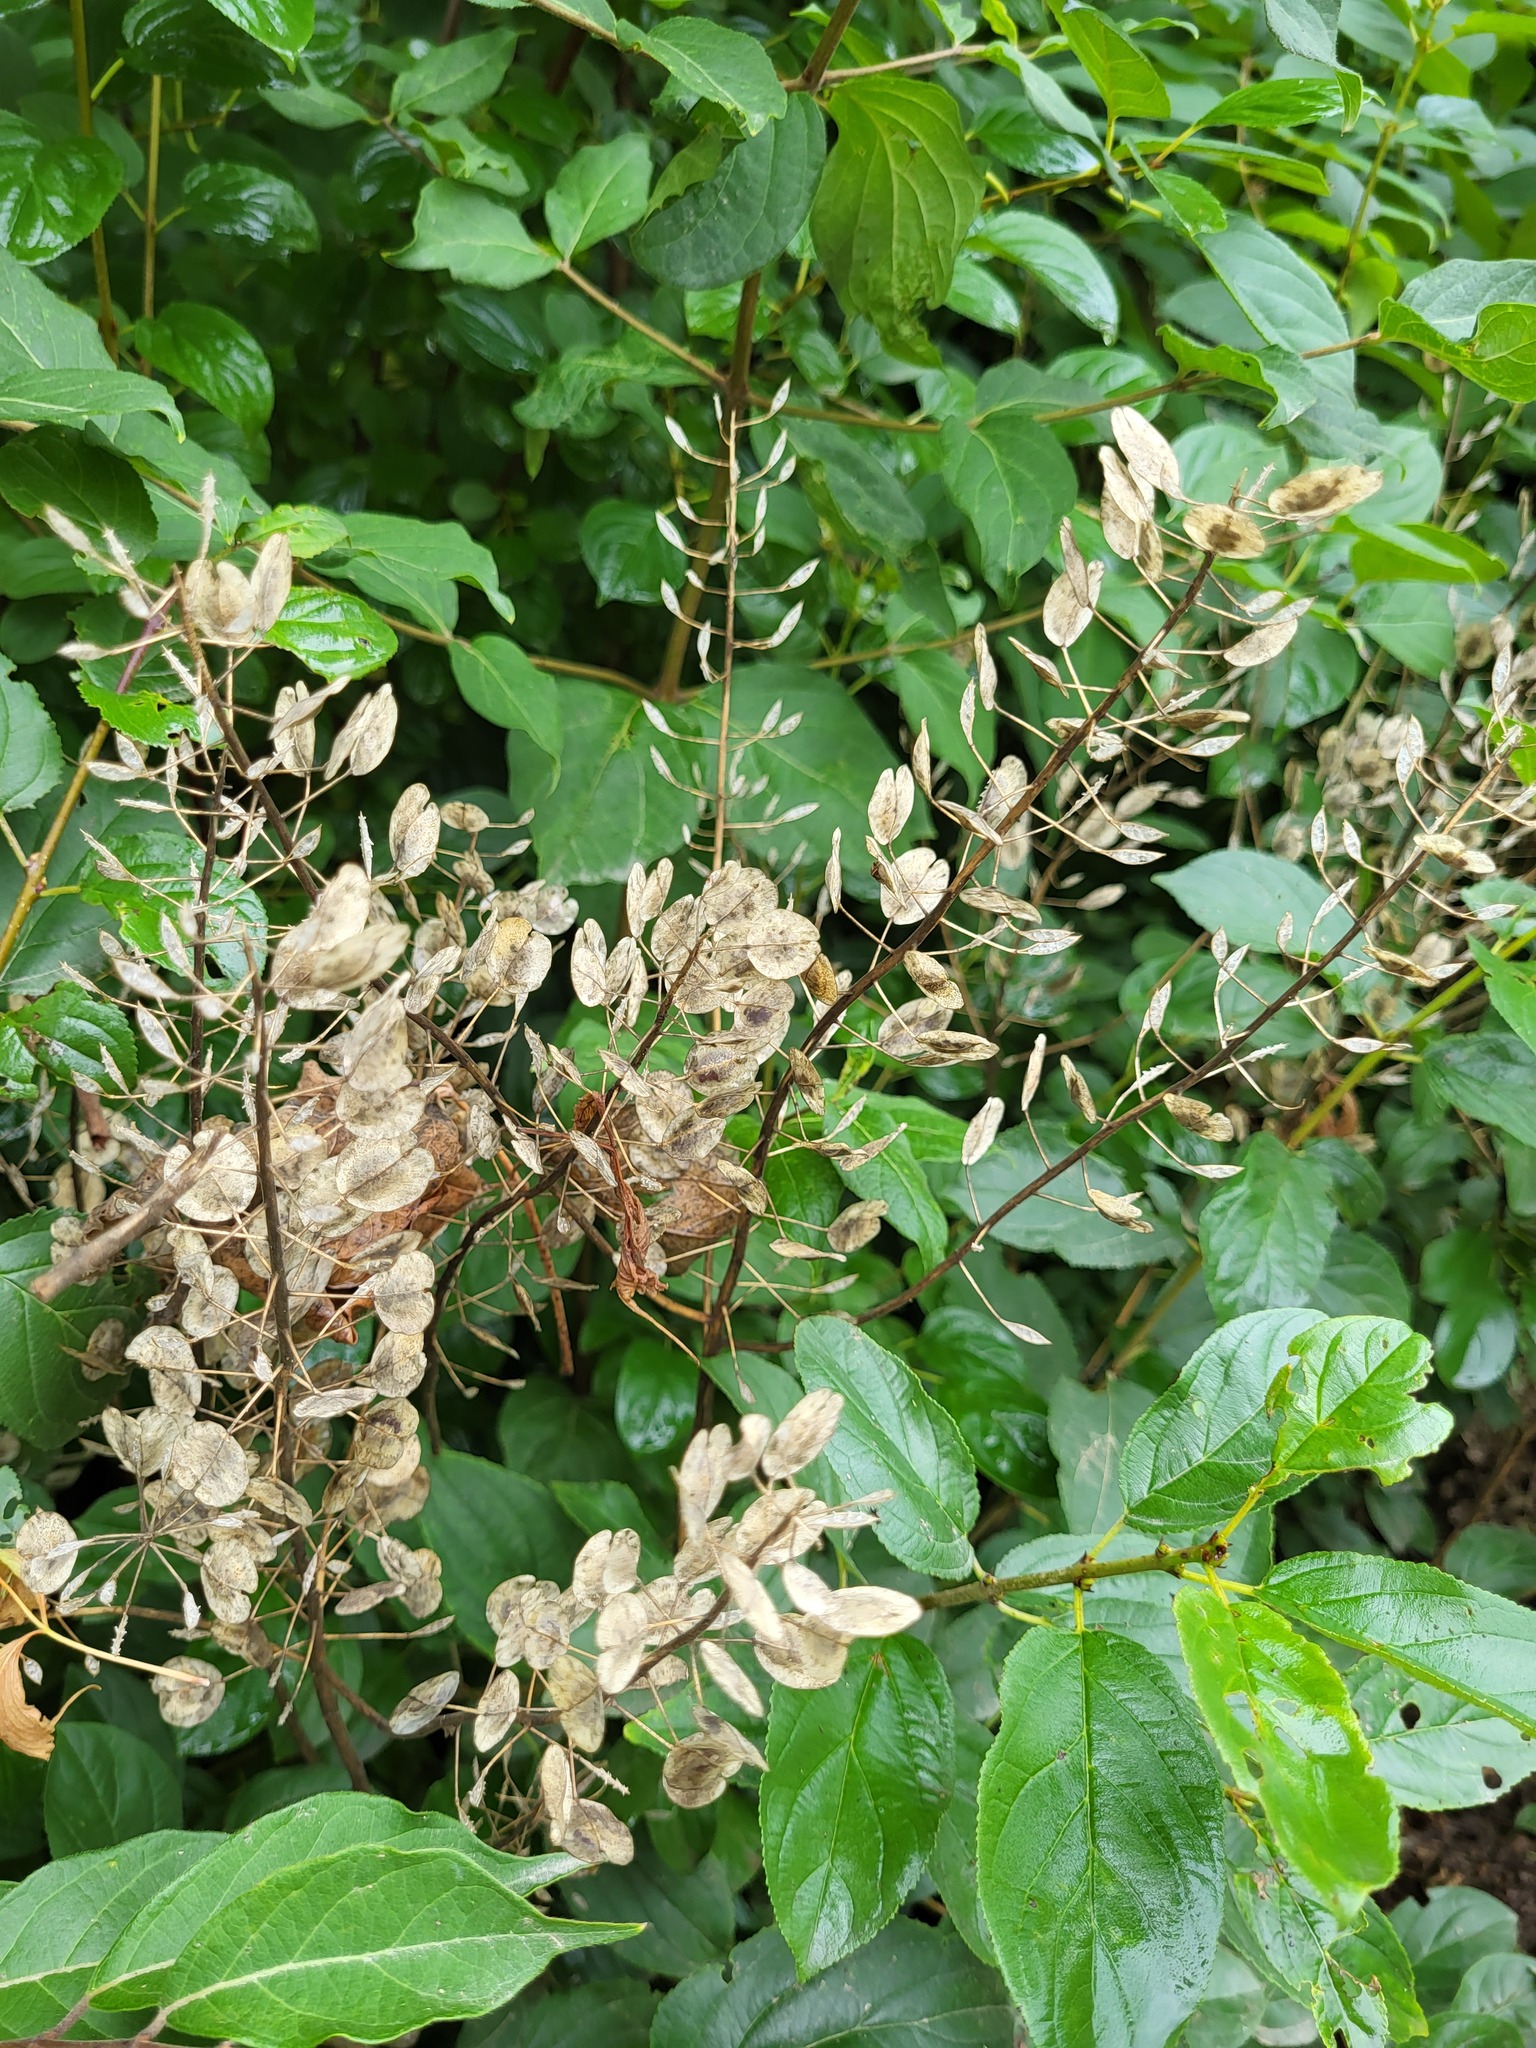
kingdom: Plantae
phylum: Tracheophyta
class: Magnoliopsida
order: Brassicales
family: Brassicaceae
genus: Thlaspi
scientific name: Thlaspi arvense
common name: Field pennycress
